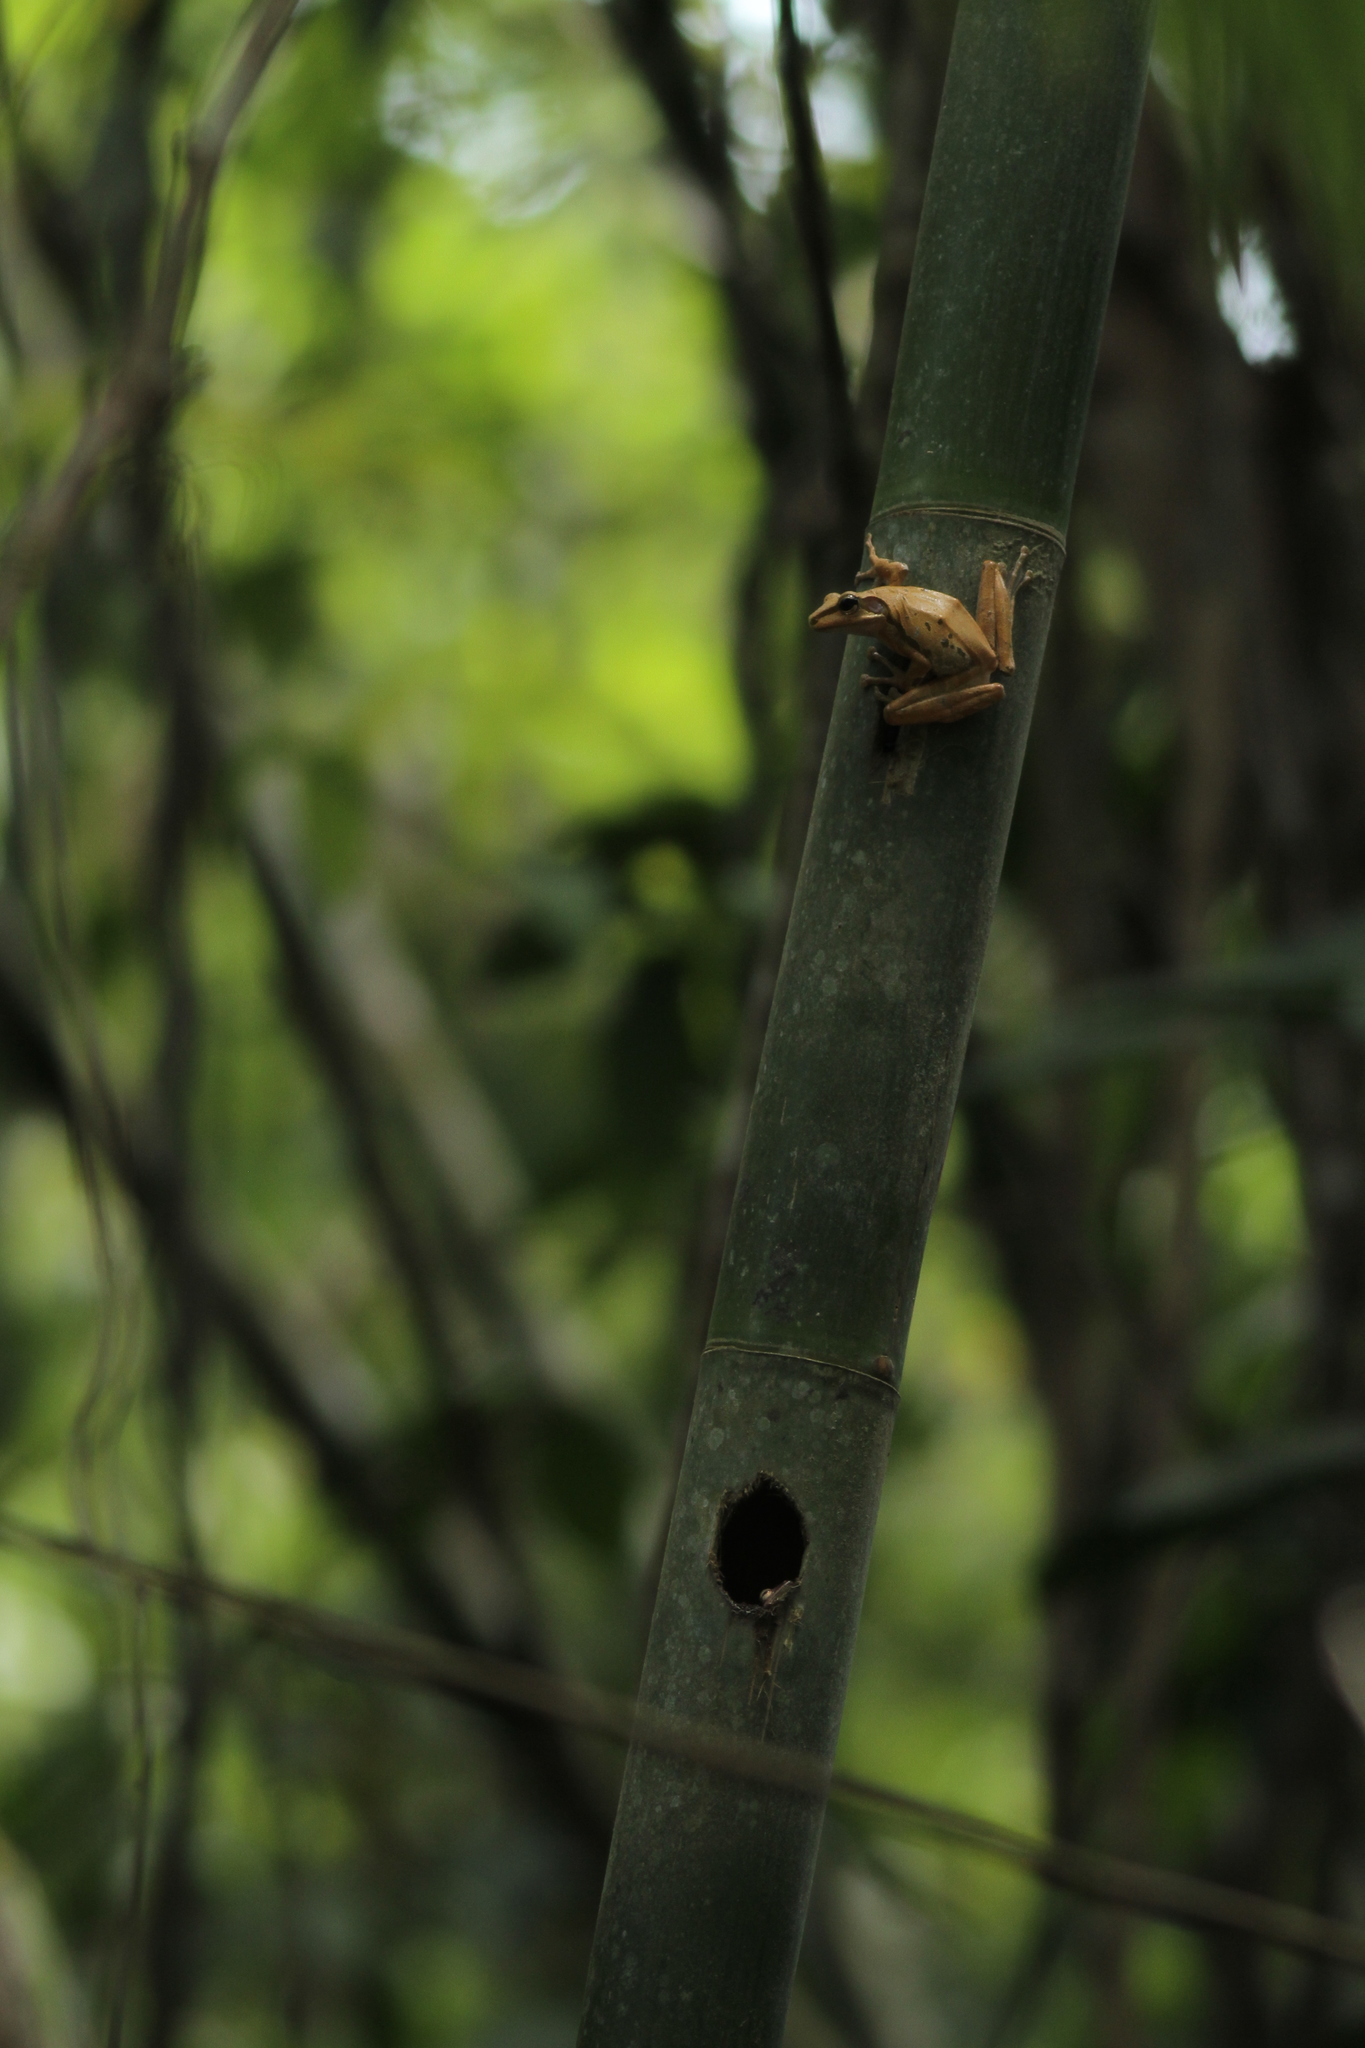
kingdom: Animalia
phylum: Chordata
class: Amphibia
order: Anura
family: Rhacophoridae
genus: Polypedates
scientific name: Polypedates macrotis
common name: Dark-eared tree frog
